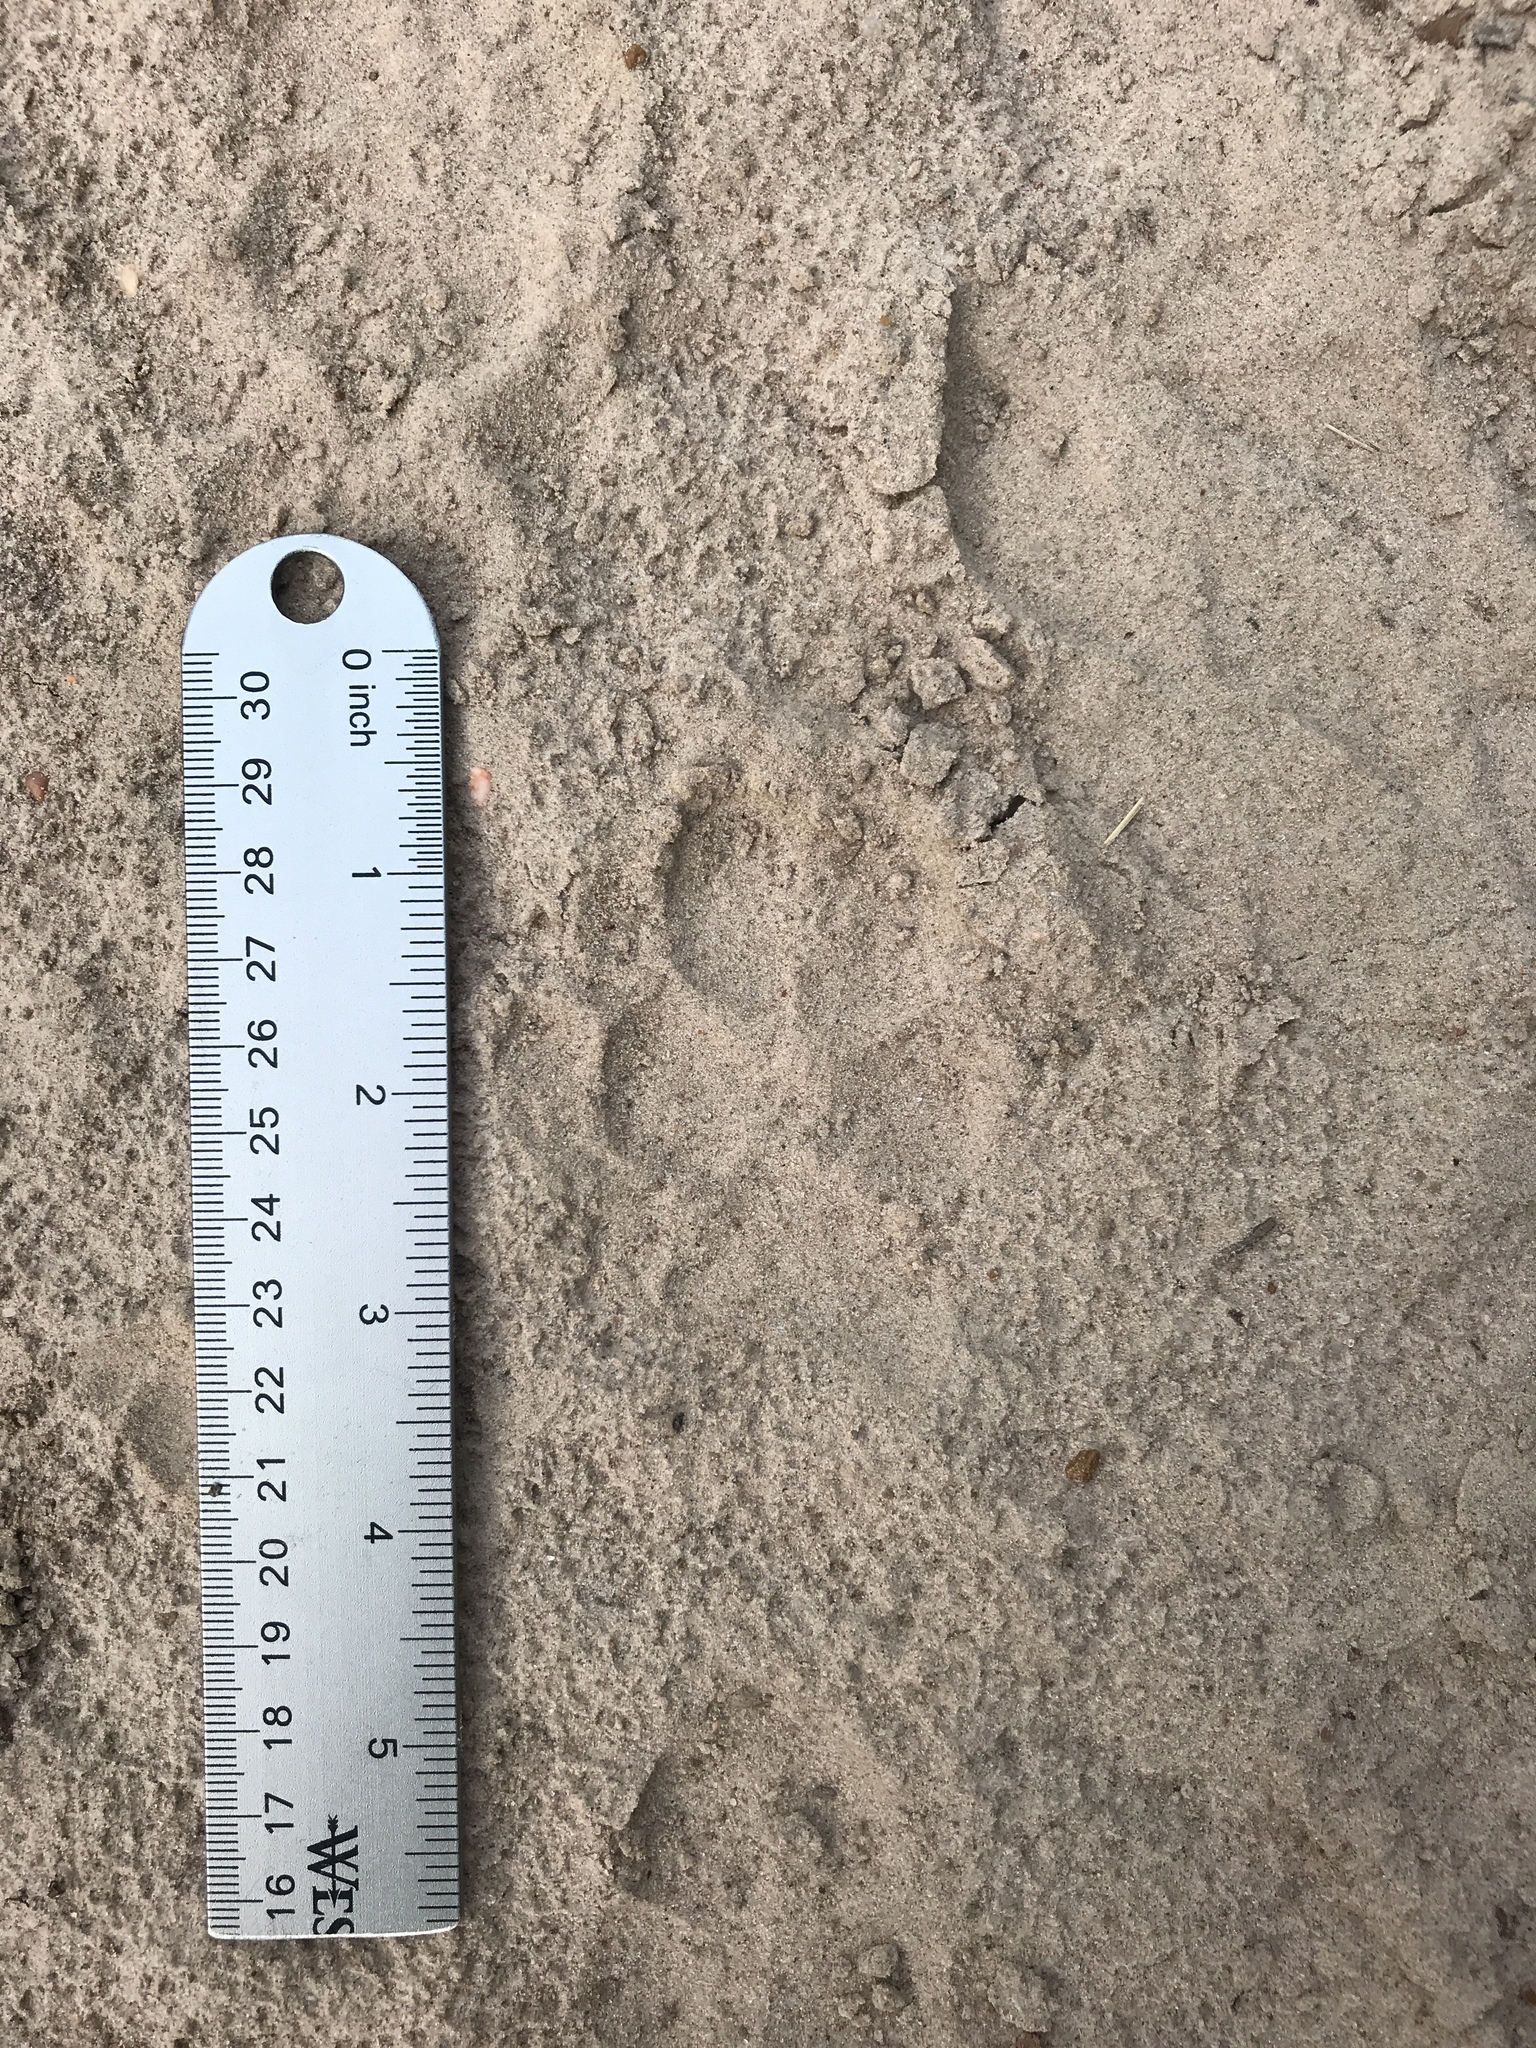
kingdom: Animalia
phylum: Chordata
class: Mammalia
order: Carnivora
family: Canidae
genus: Canis
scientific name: Canis latrans
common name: Coyote
